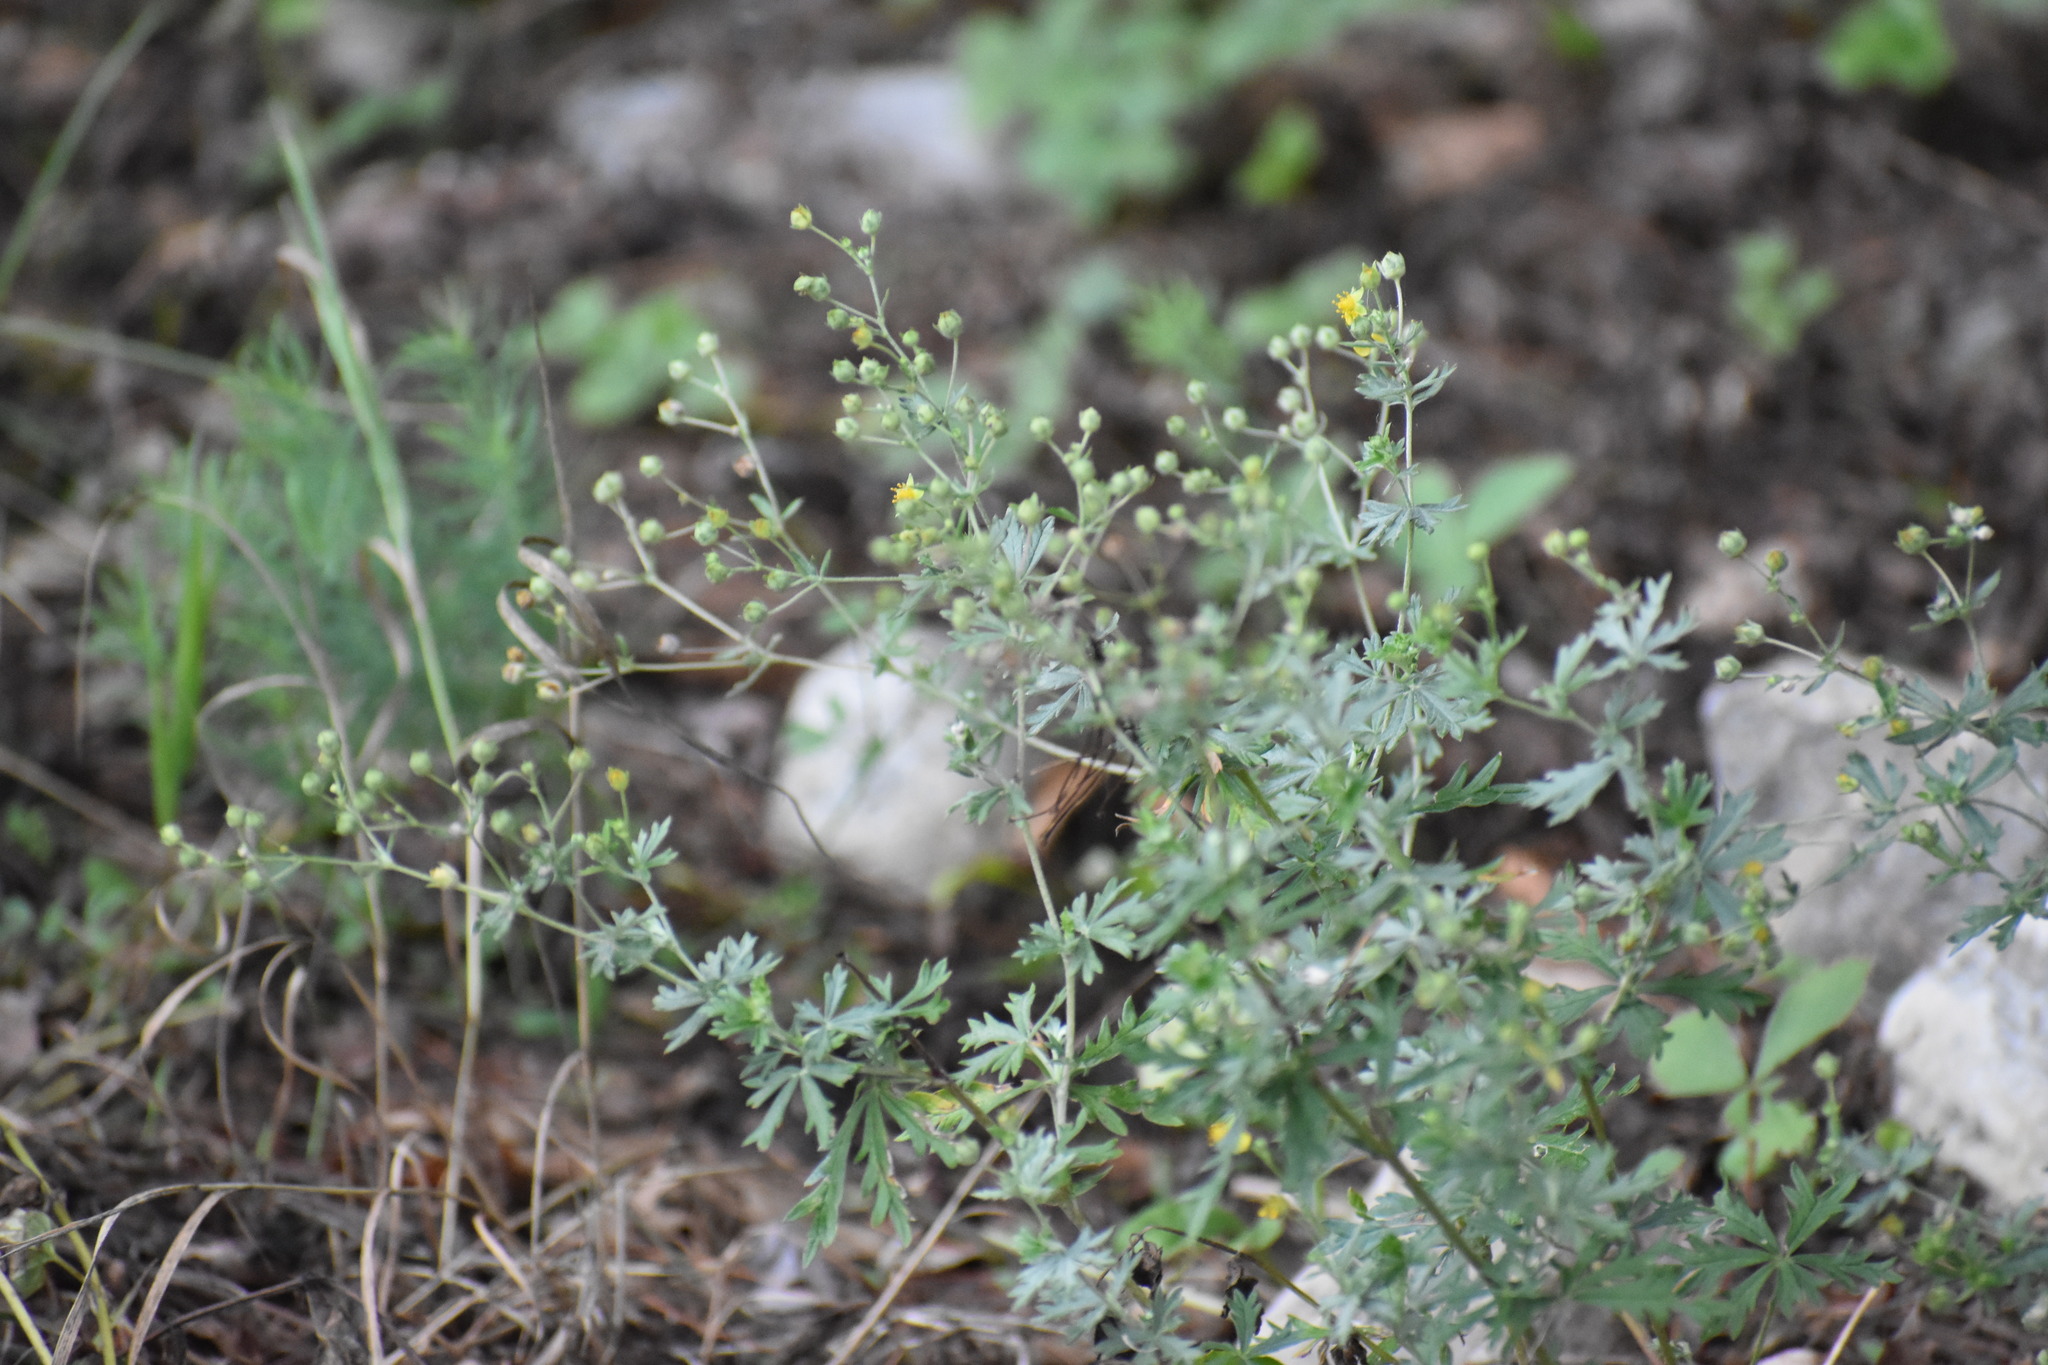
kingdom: Plantae
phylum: Tracheophyta
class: Magnoliopsida
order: Rosales
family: Rosaceae
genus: Potentilla
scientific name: Potentilla argentea
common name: Hoary cinquefoil
